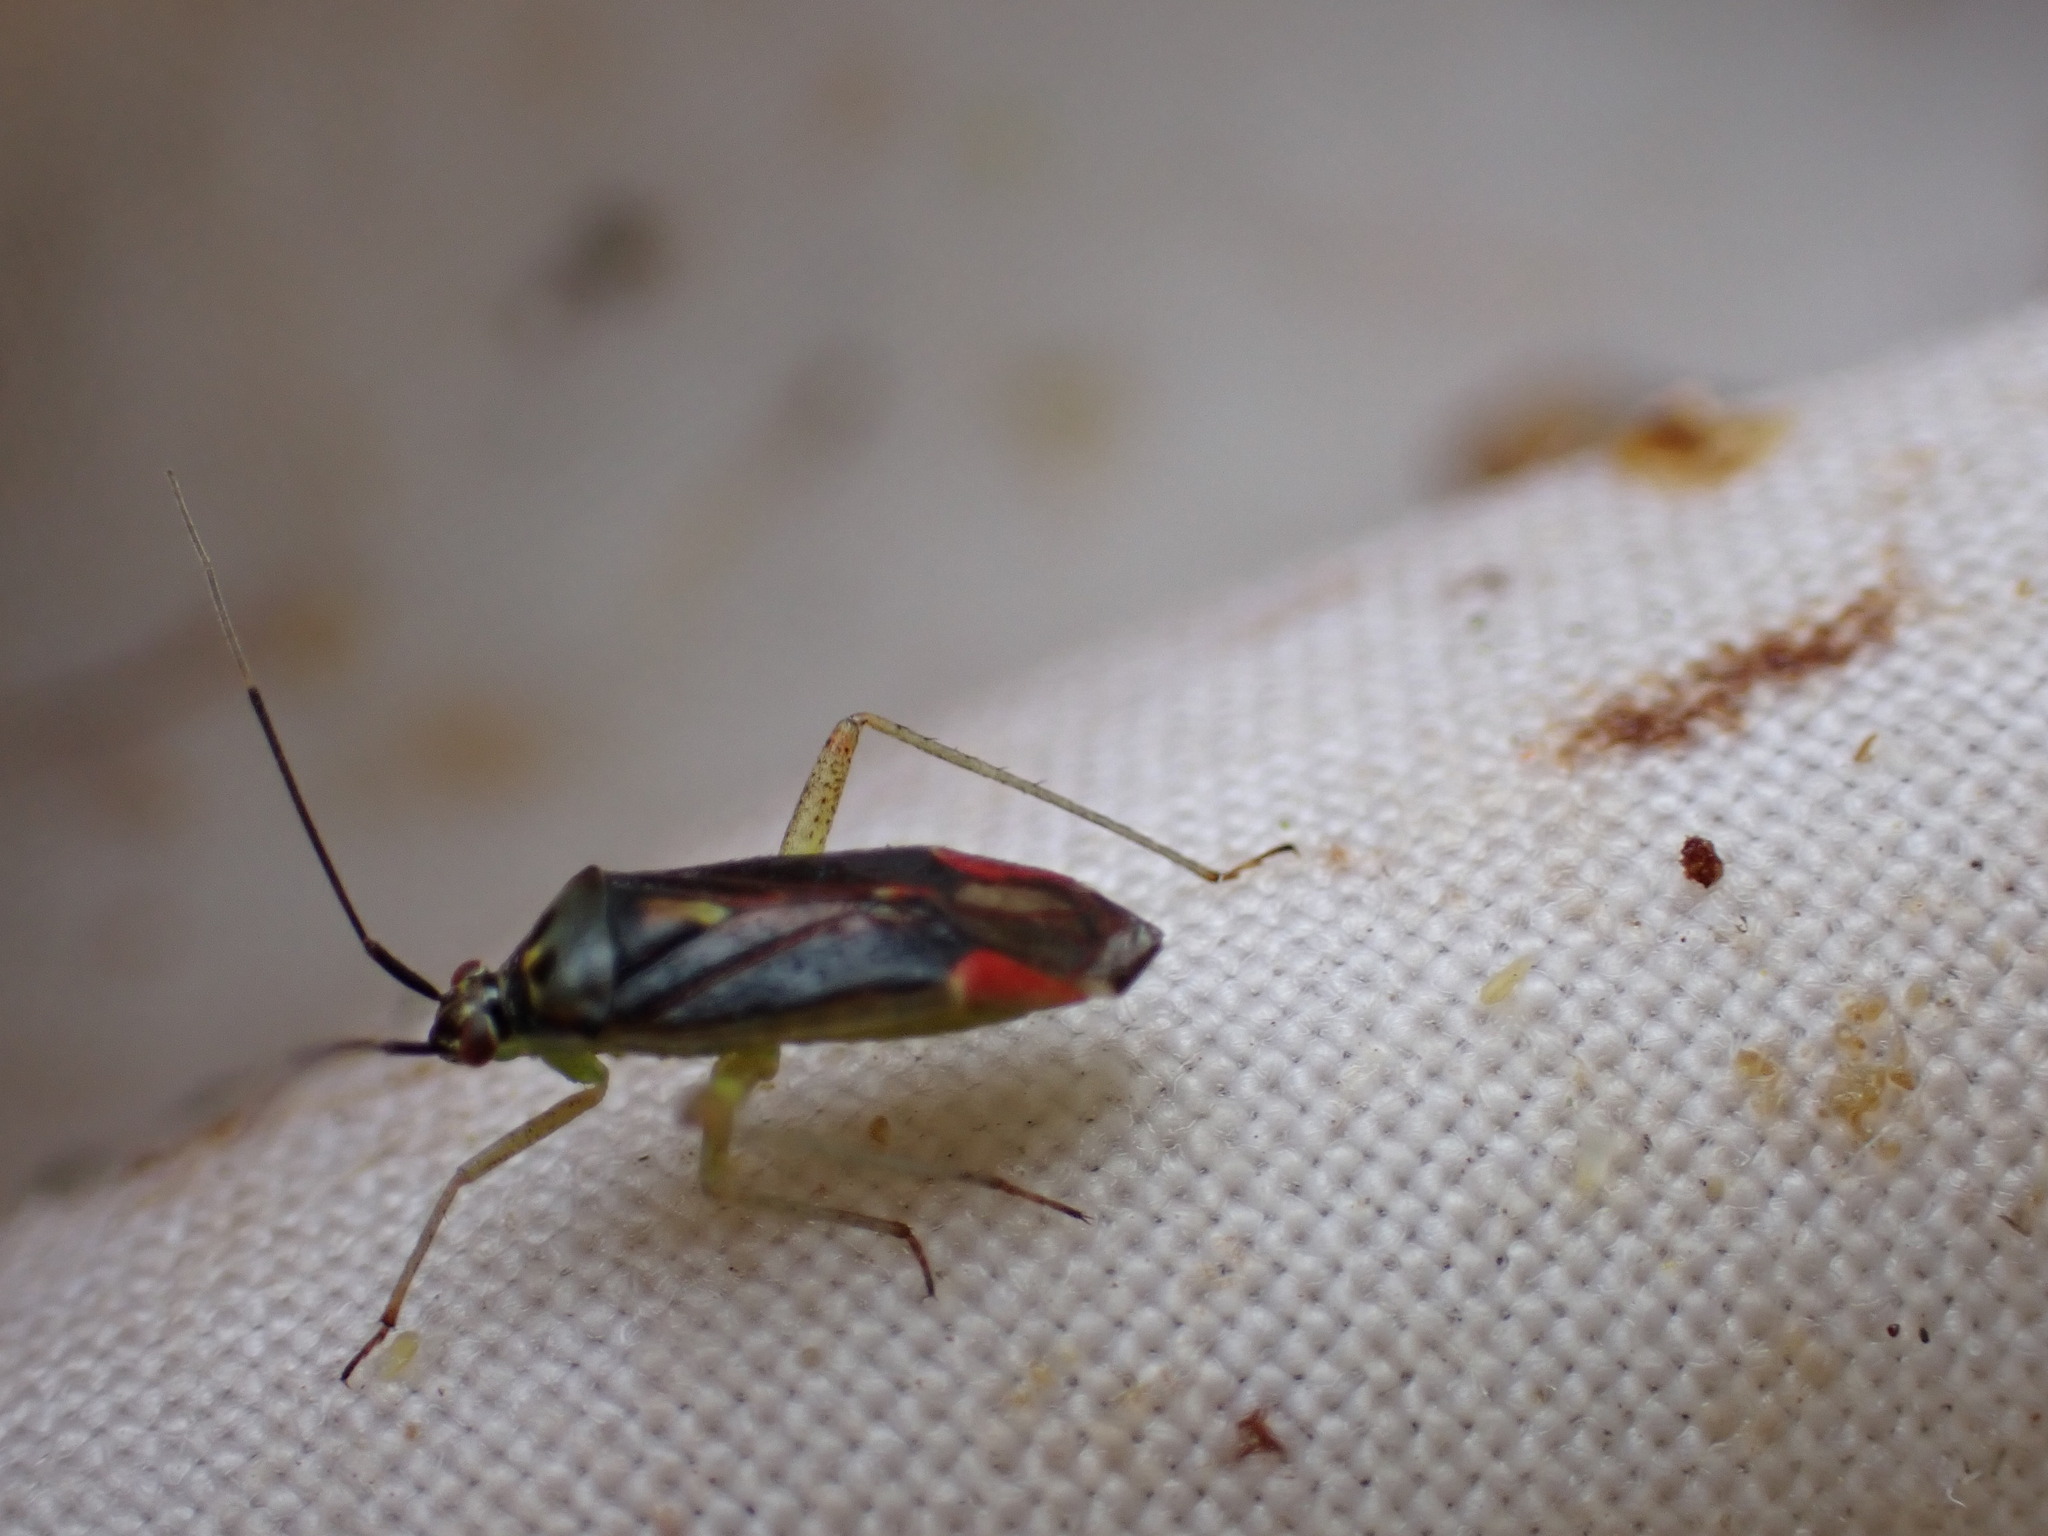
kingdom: Animalia
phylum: Arthropoda
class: Insecta
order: Hemiptera
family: Miridae
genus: Closterotomus
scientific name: Closterotomus trivialis
